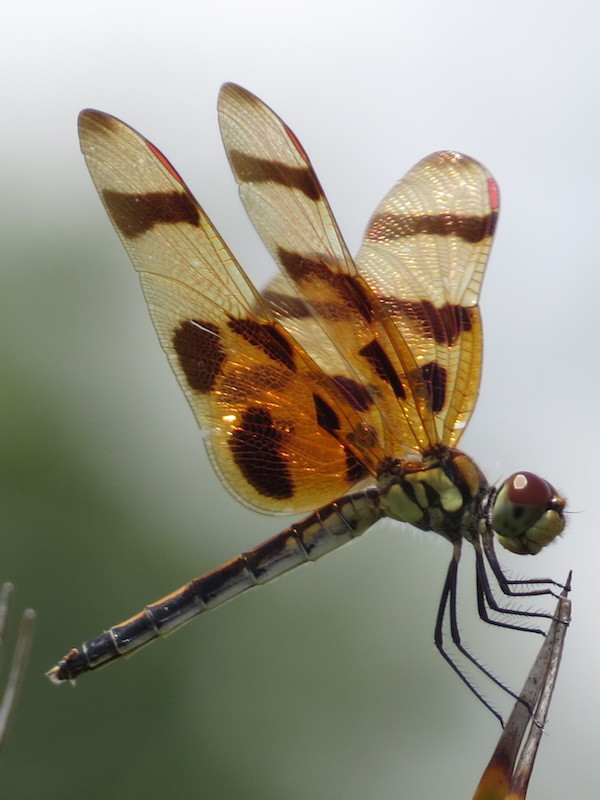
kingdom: Animalia
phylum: Arthropoda
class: Insecta
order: Odonata
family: Libellulidae
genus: Celithemis
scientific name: Celithemis eponina
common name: Halloween pennant
